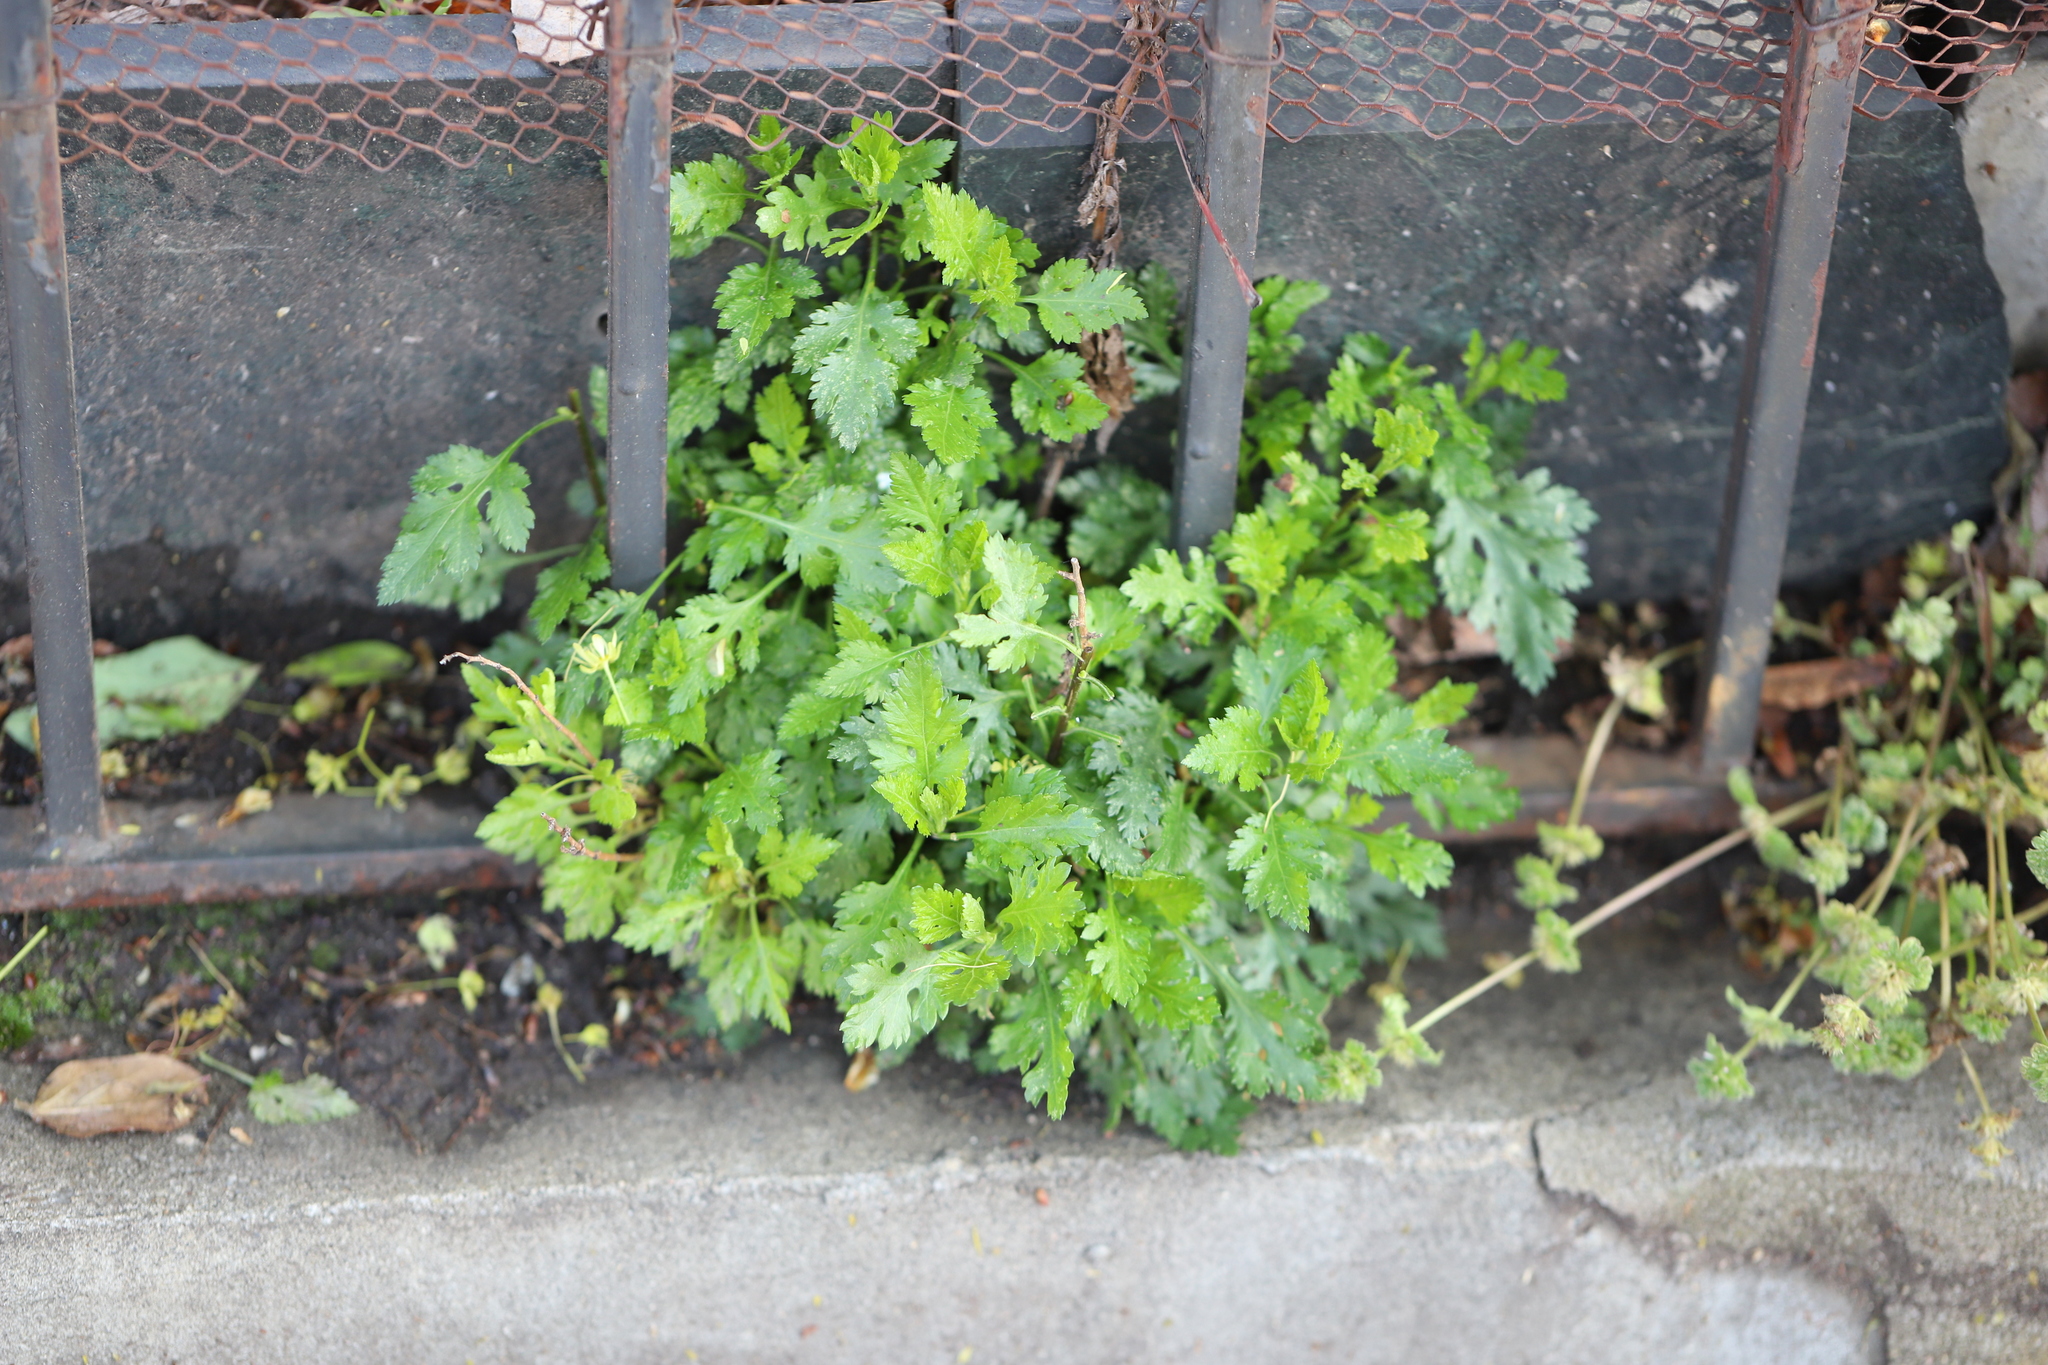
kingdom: Plantae
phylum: Tracheophyta
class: Magnoliopsida
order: Apiales
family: Apiaceae
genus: Petroselinum
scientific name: Petroselinum crispum
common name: Parsley
